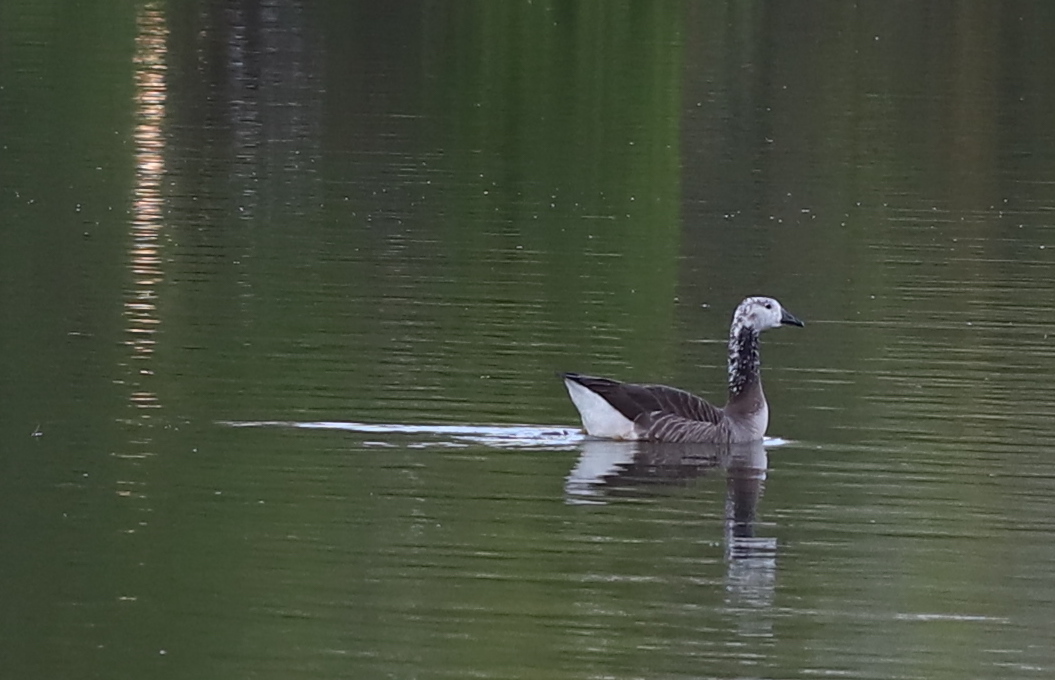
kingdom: Animalia
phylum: Chordata
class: Aves
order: Anseriformes
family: Anatidae
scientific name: Anatidae
